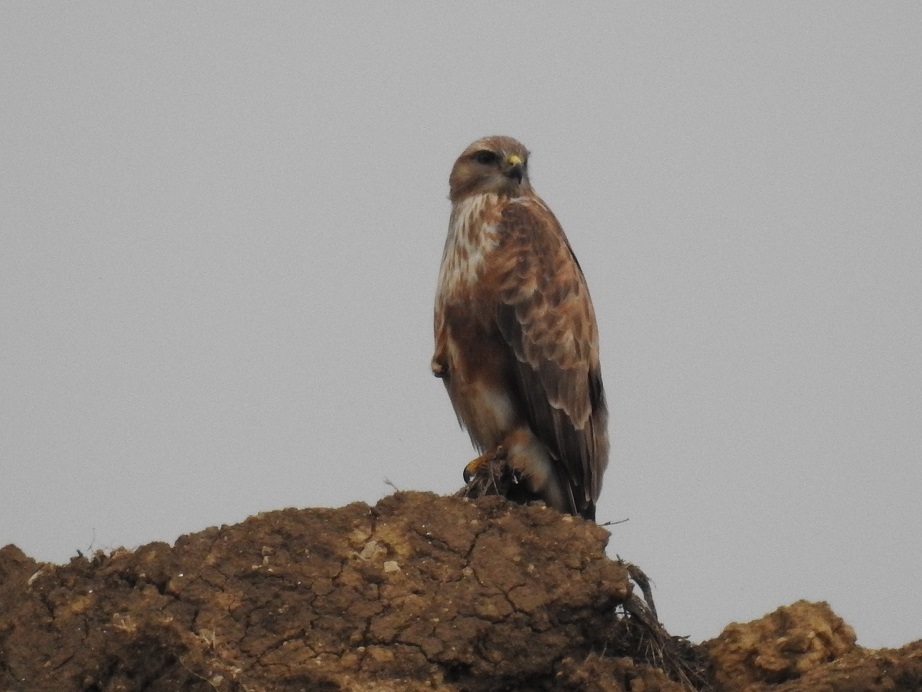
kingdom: Animalia
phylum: Chordata
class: Aves
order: Accipitriformes
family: Accipitridae
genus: Buteo
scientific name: Buteo rufinus
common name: Long-legged buzzard
